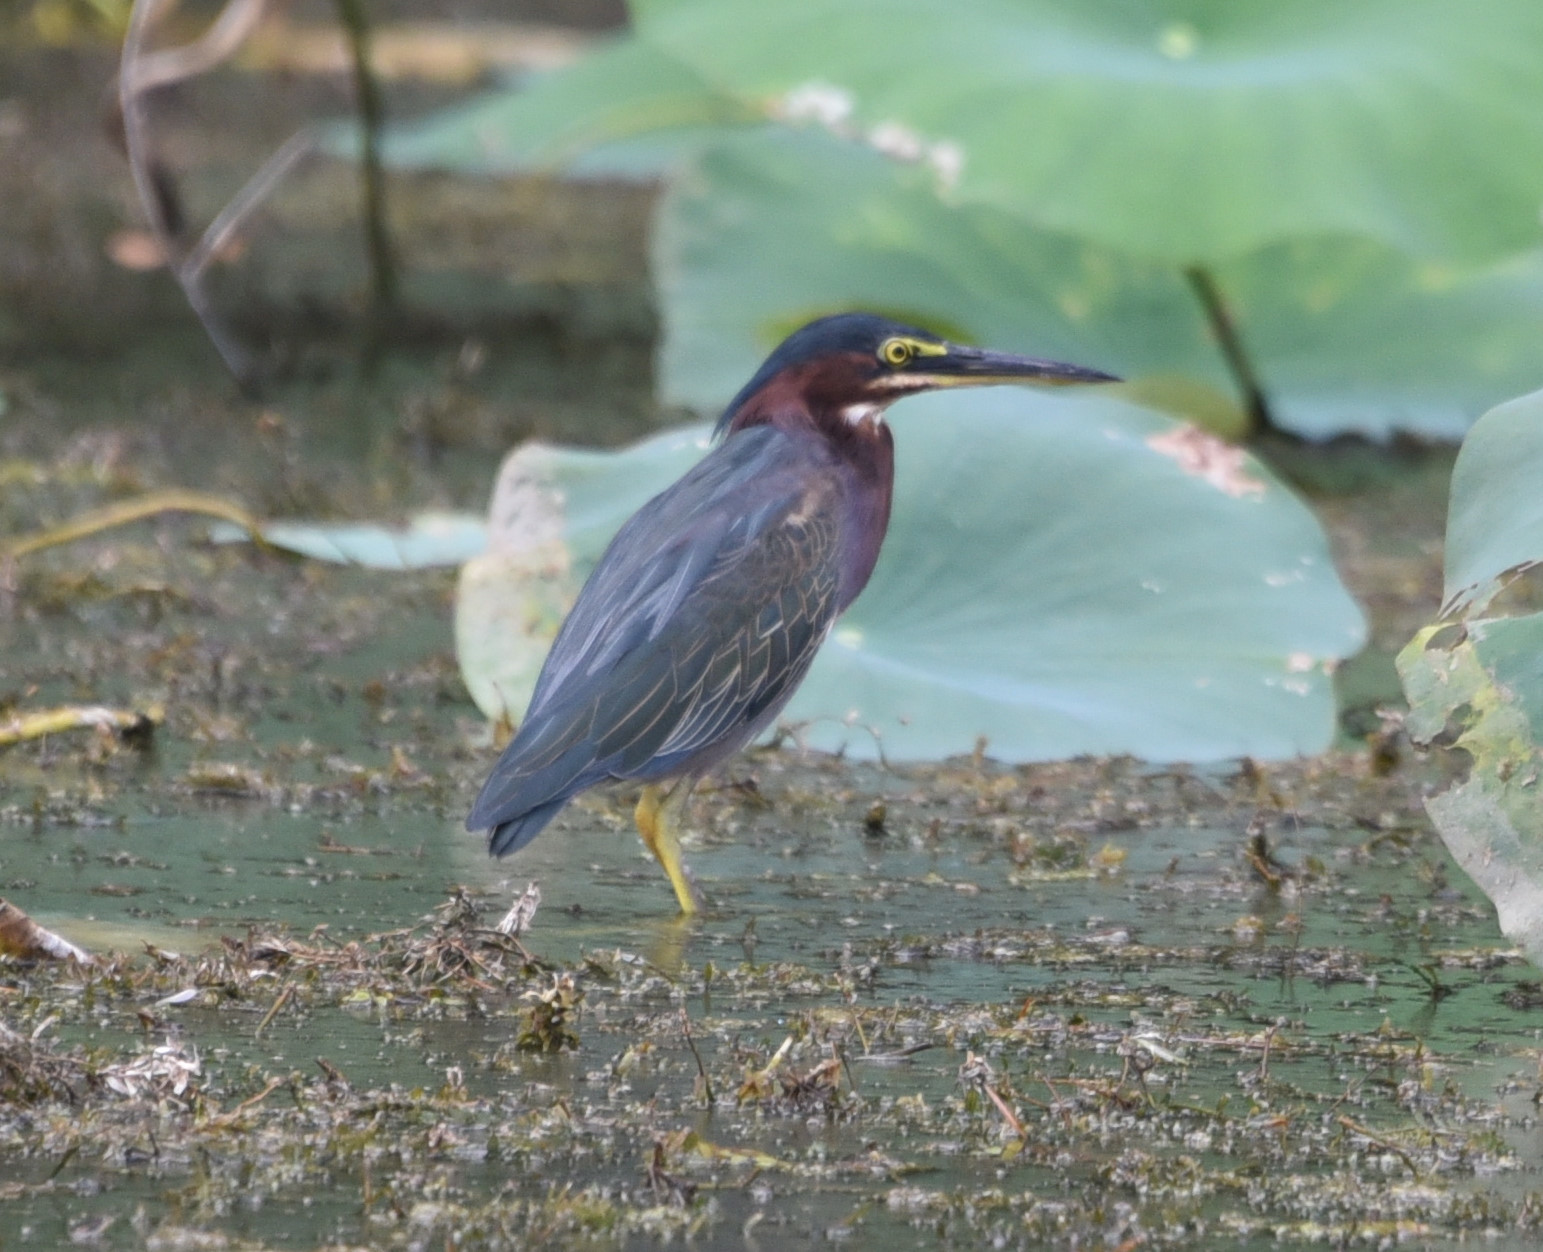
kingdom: Animalia
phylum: Chordata
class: Aves
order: Pelecaniformes
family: Ardeidae
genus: Butorides
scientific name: Butorides virescens
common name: Green heron
